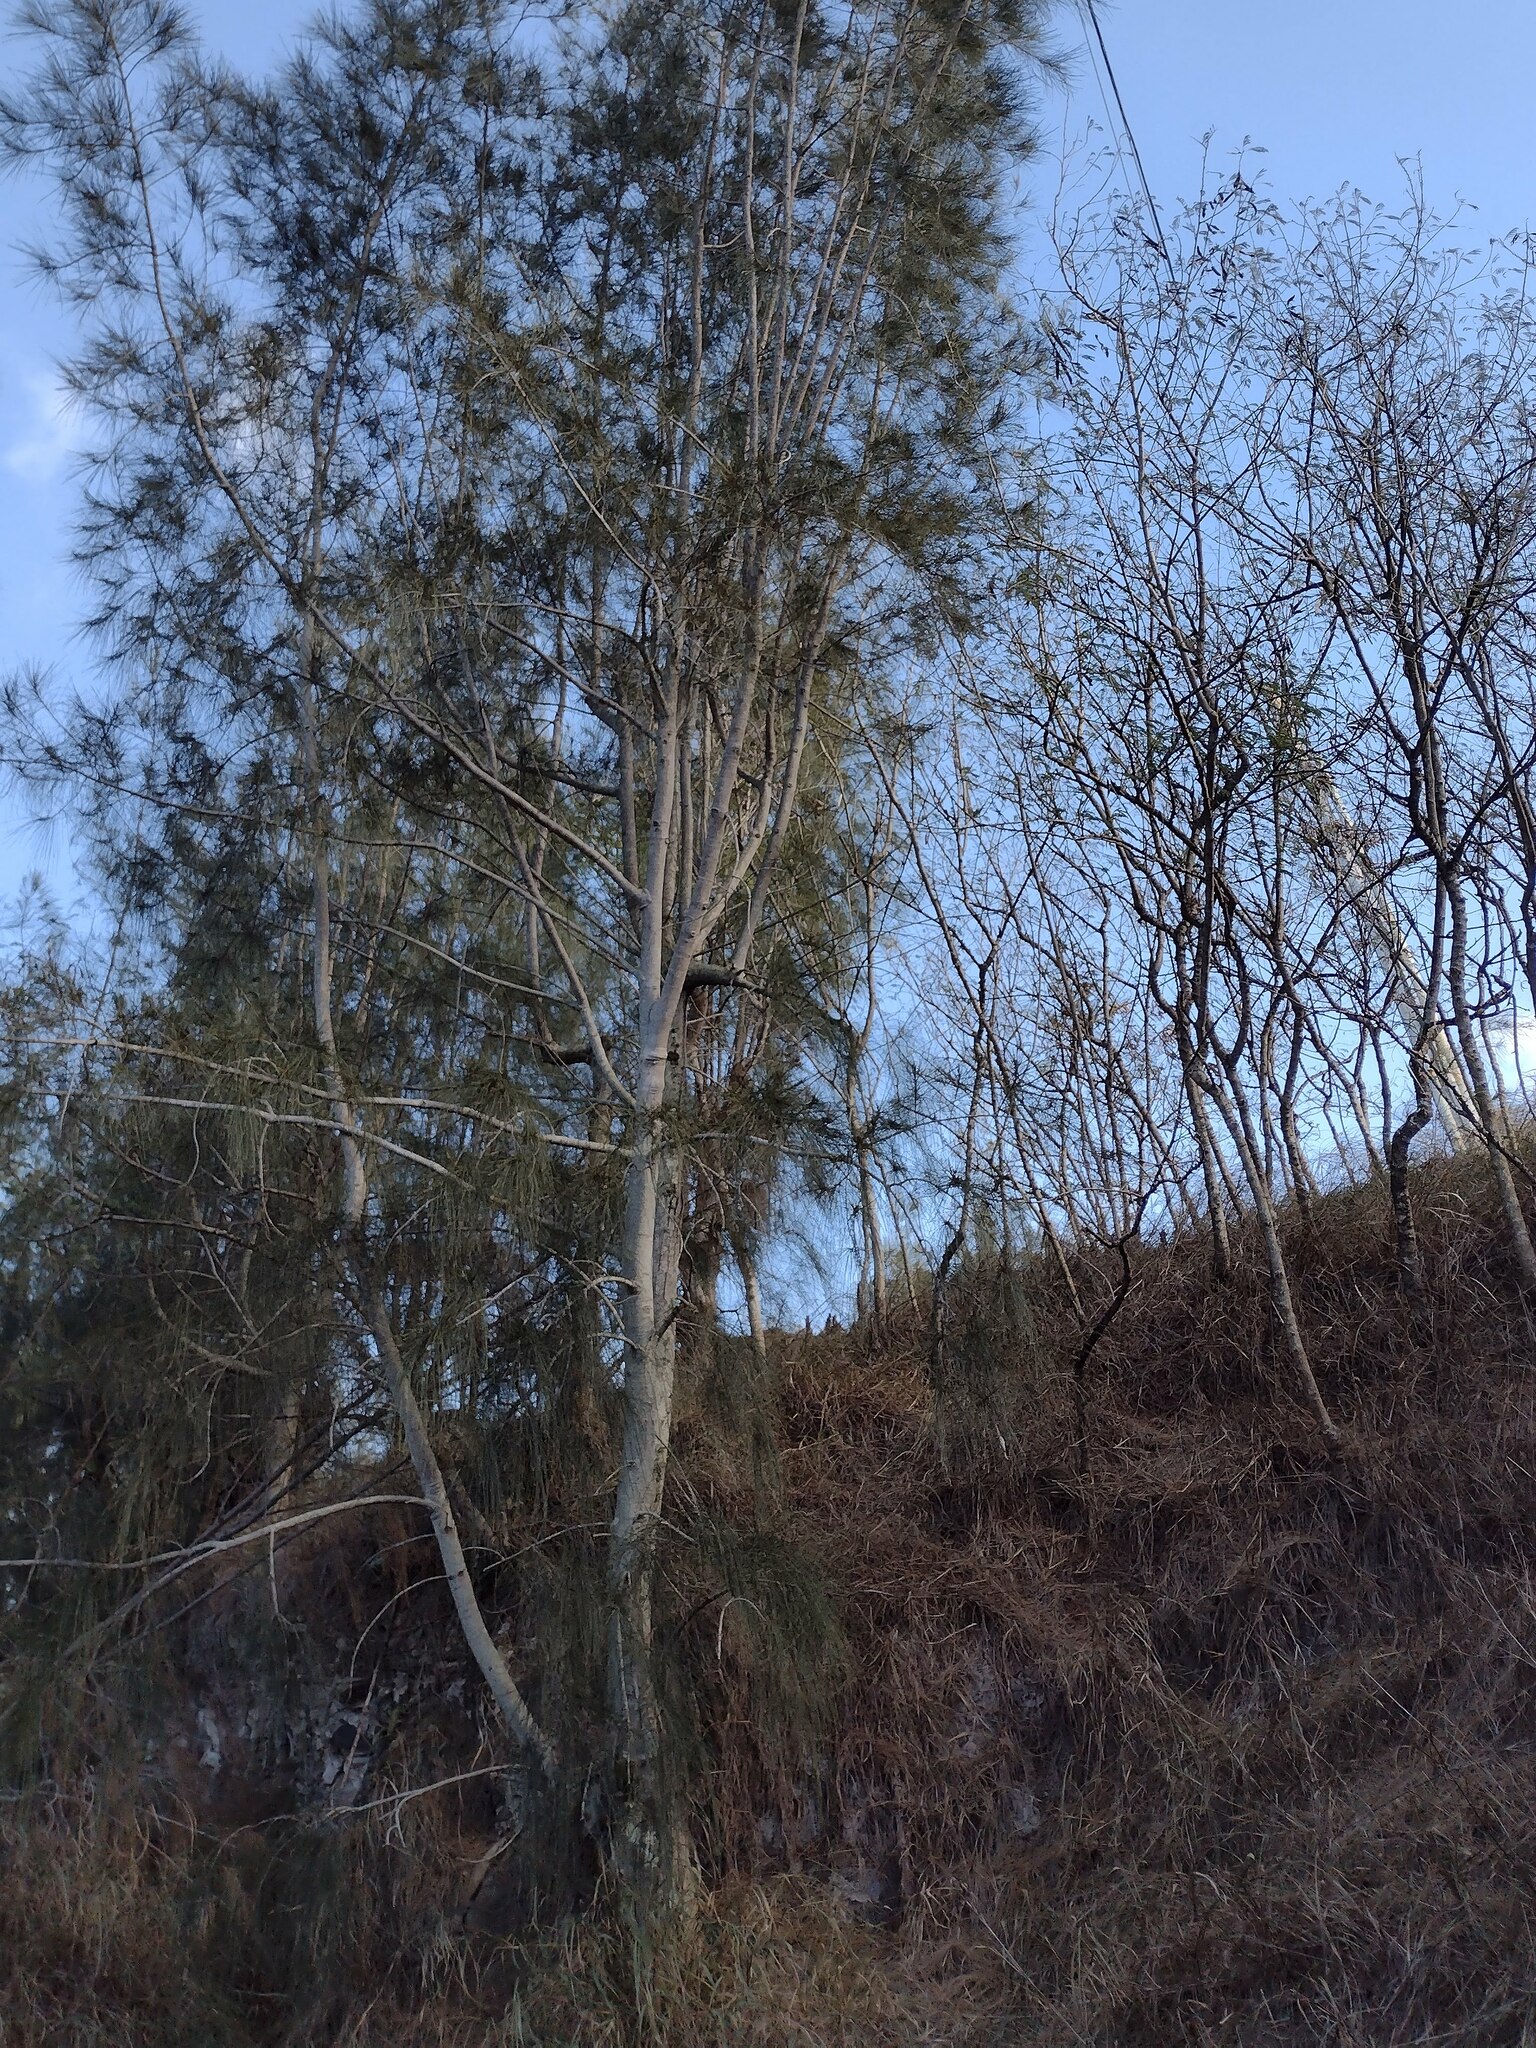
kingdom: Plantae
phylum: Tracheophyta
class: Magnoliopsida
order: Fagales
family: Casuarinaceae
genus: Casuarina
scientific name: Casuarina equisetifolia
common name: Beach sheoak
